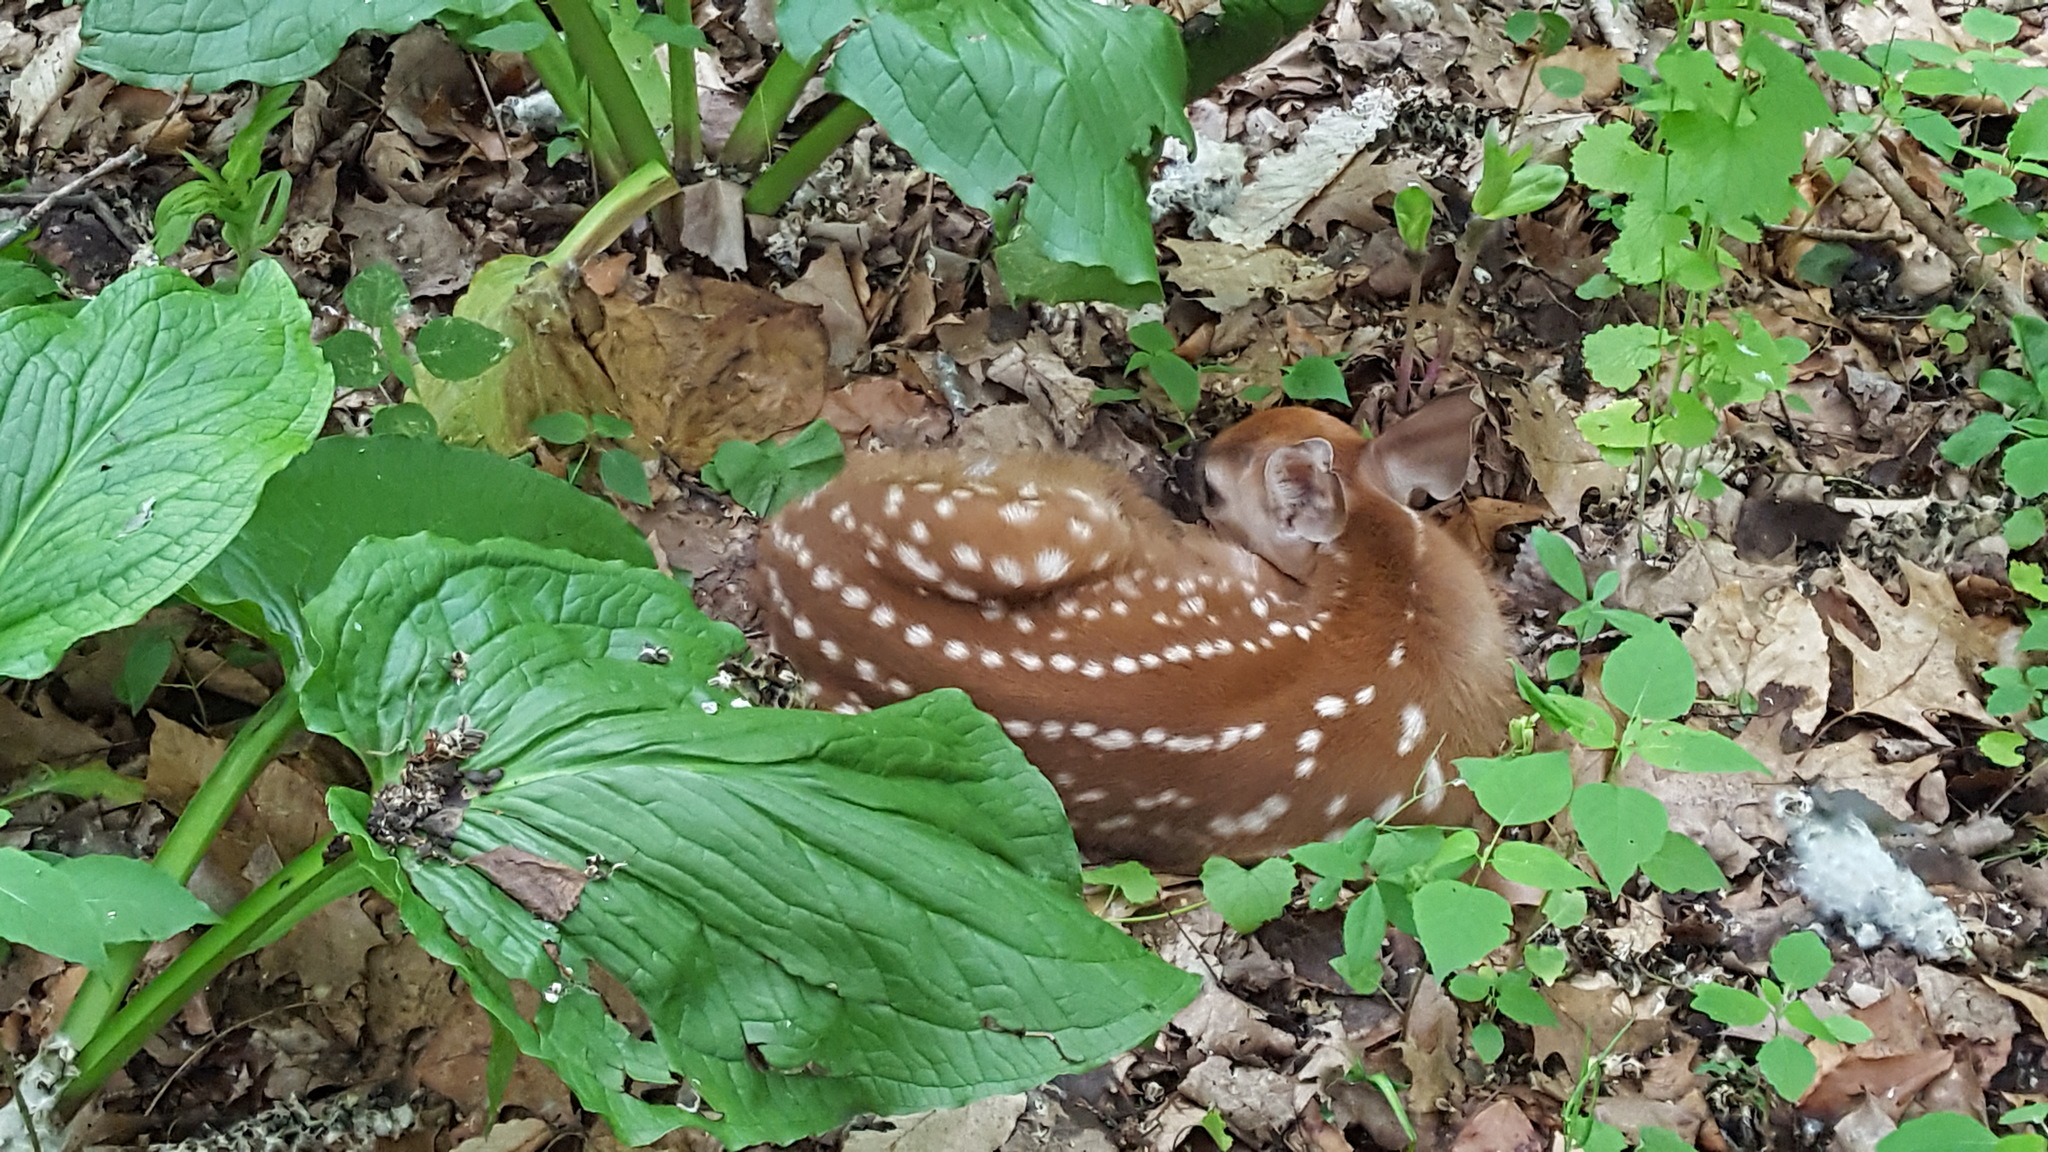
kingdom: Animalia
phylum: Chordata
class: Mammalia
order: Artiodactyla
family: Cervidae
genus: Odocoileus
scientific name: Odocoileus virginianus
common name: White-tailed deer
